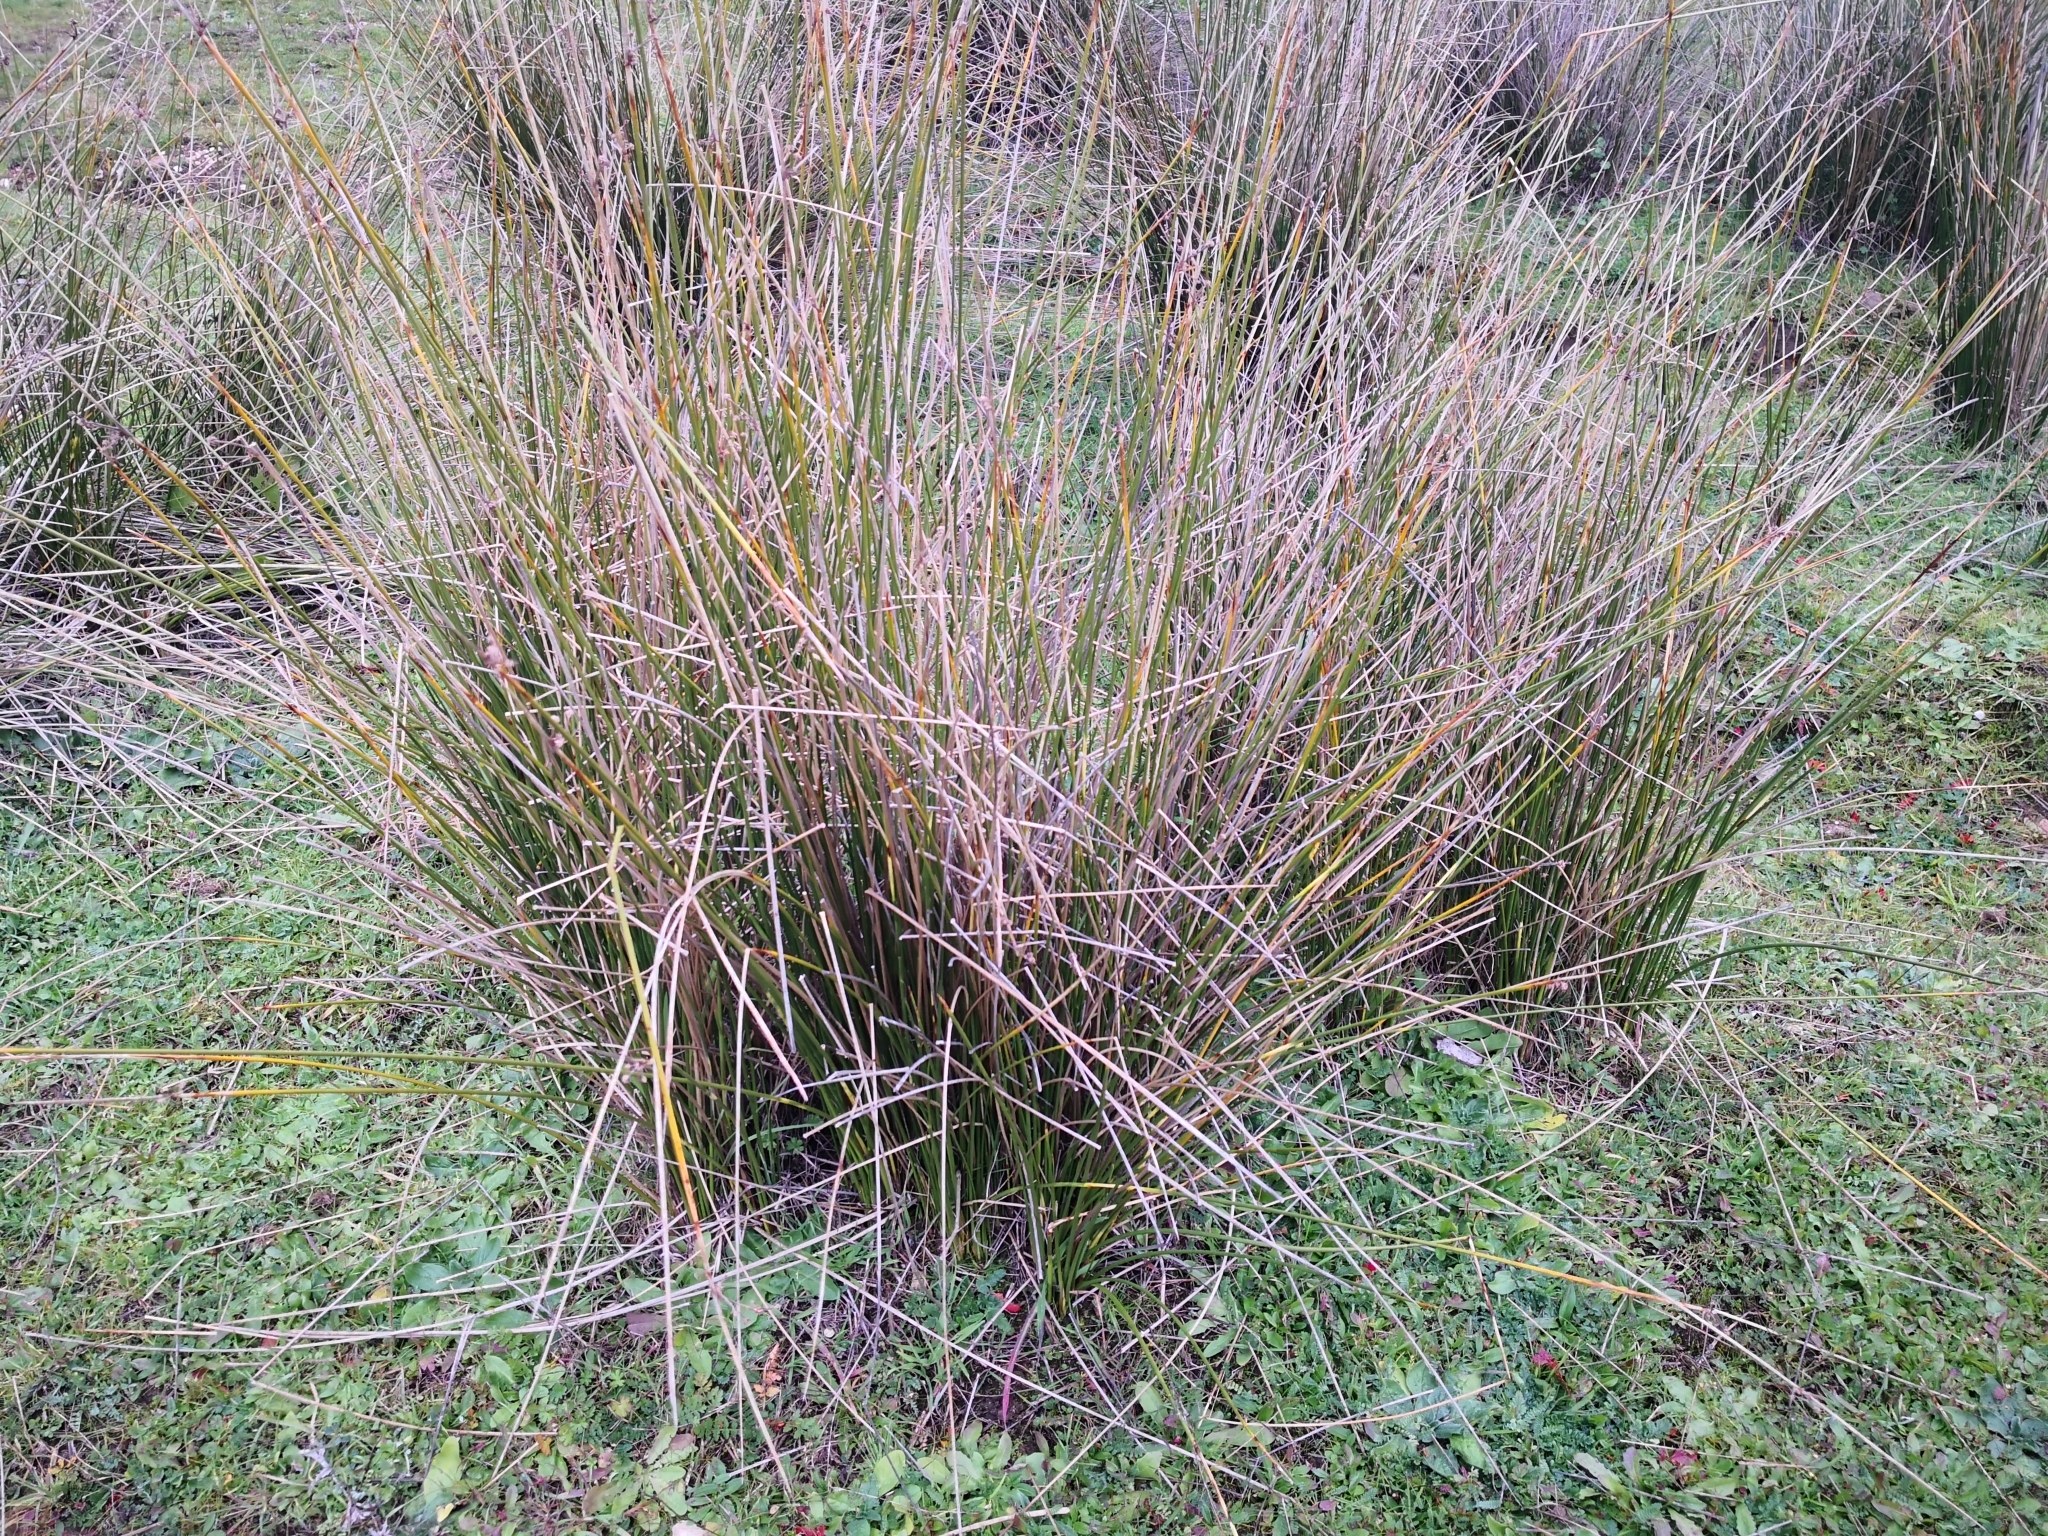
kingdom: Plantae
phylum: Tracheophyta
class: Liliopsida
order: Poales
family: Cyperaceae
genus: Scirpoides
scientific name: Scirpoides holoschoenus
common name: Round-headed club-rush
